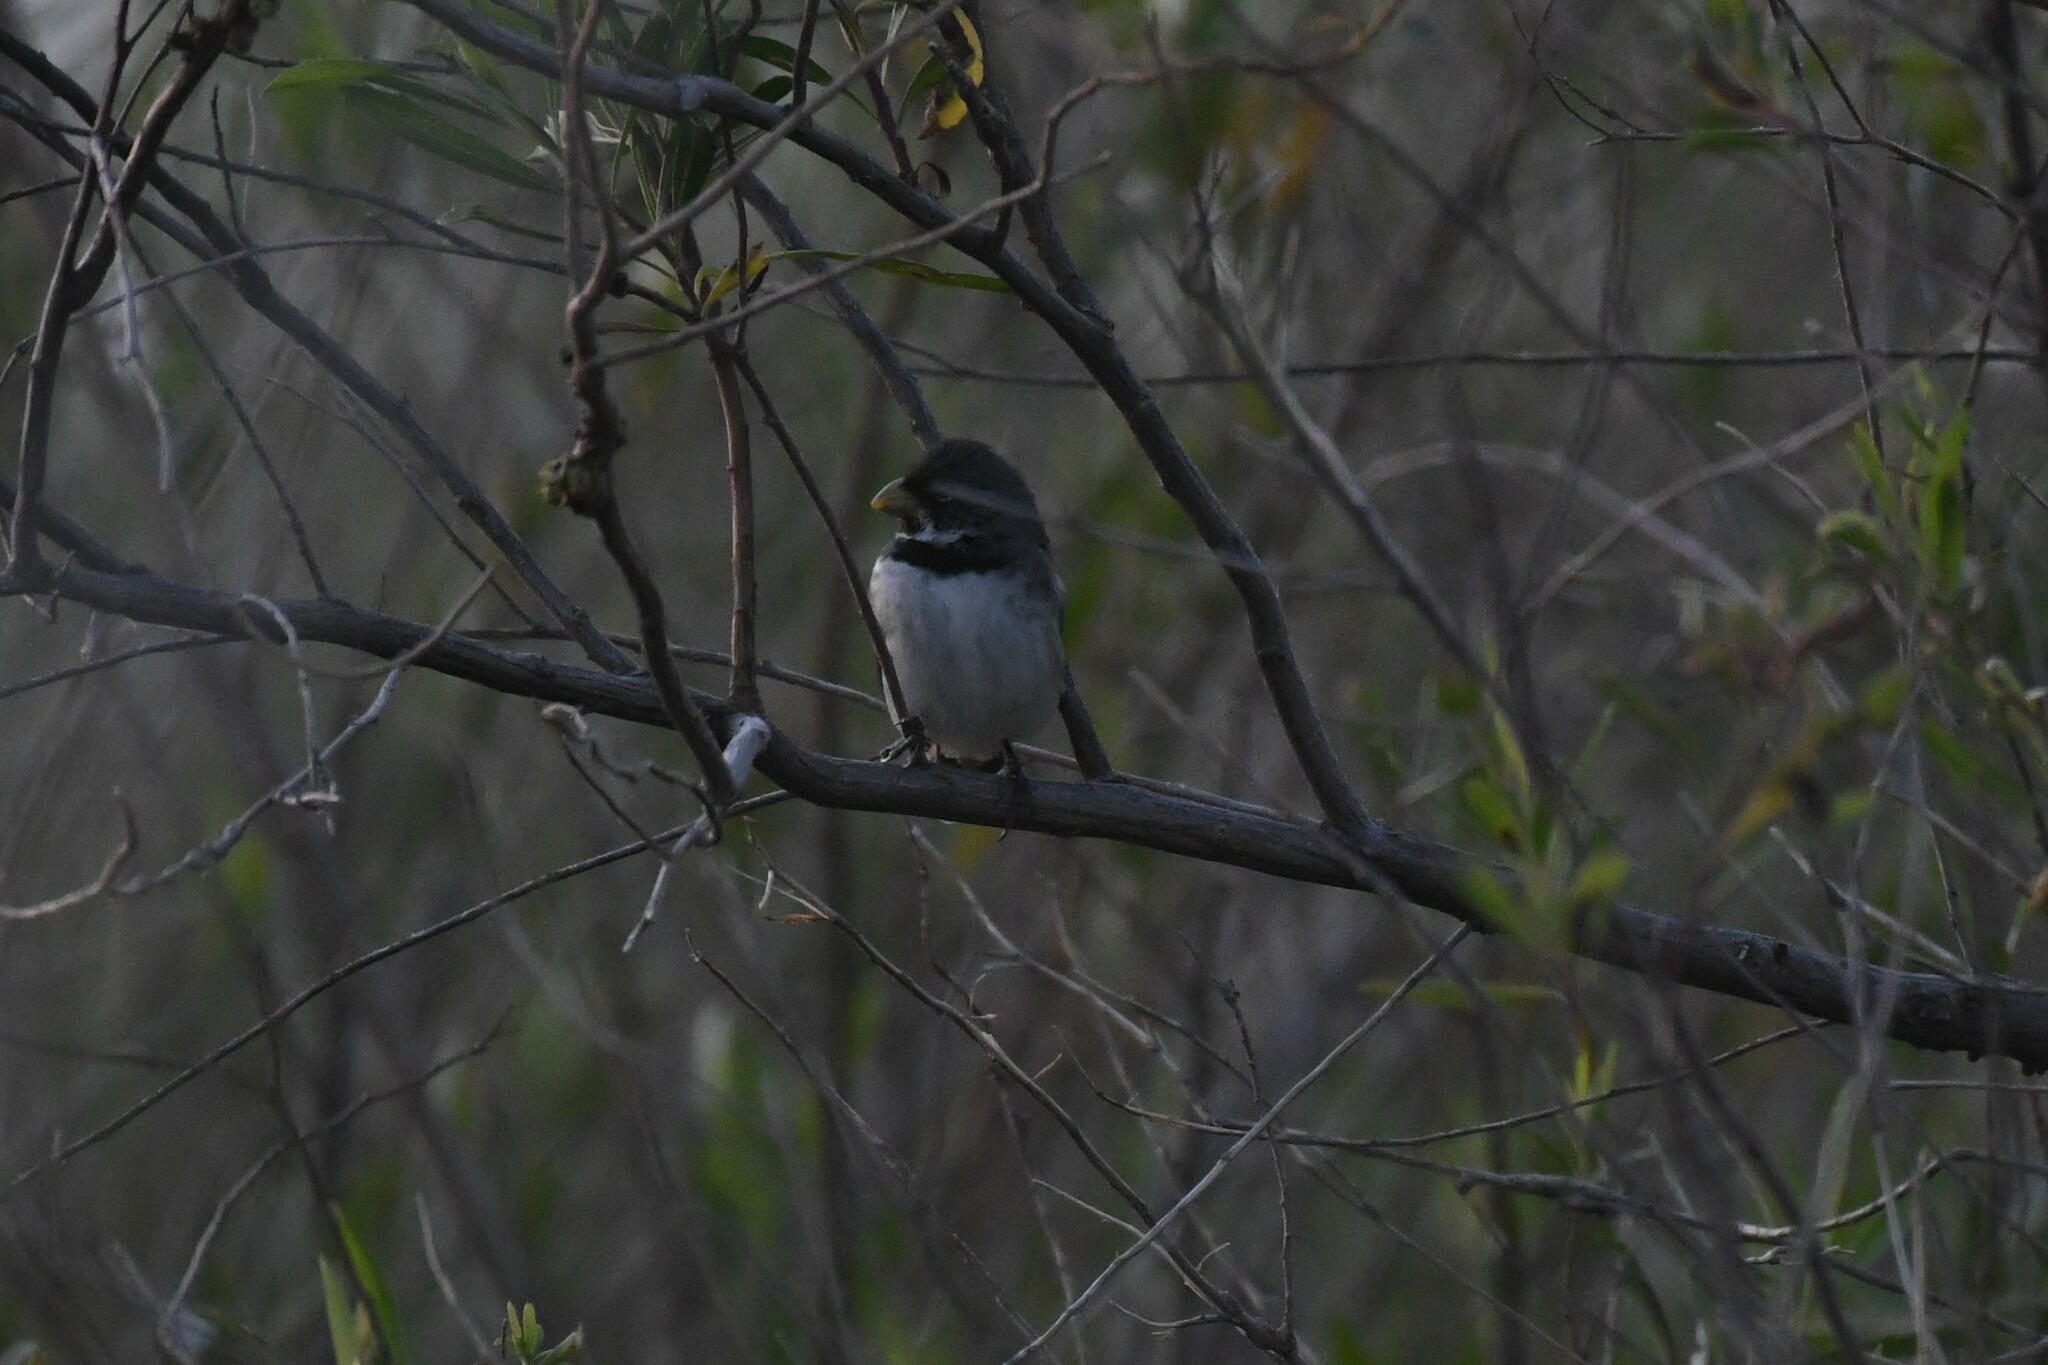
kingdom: Animalia
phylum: Chordata
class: Aves
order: Passeriformes
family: Thraupidae
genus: Sporophila
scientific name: Sporophila caerulescens
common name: Double-collared seedeater
